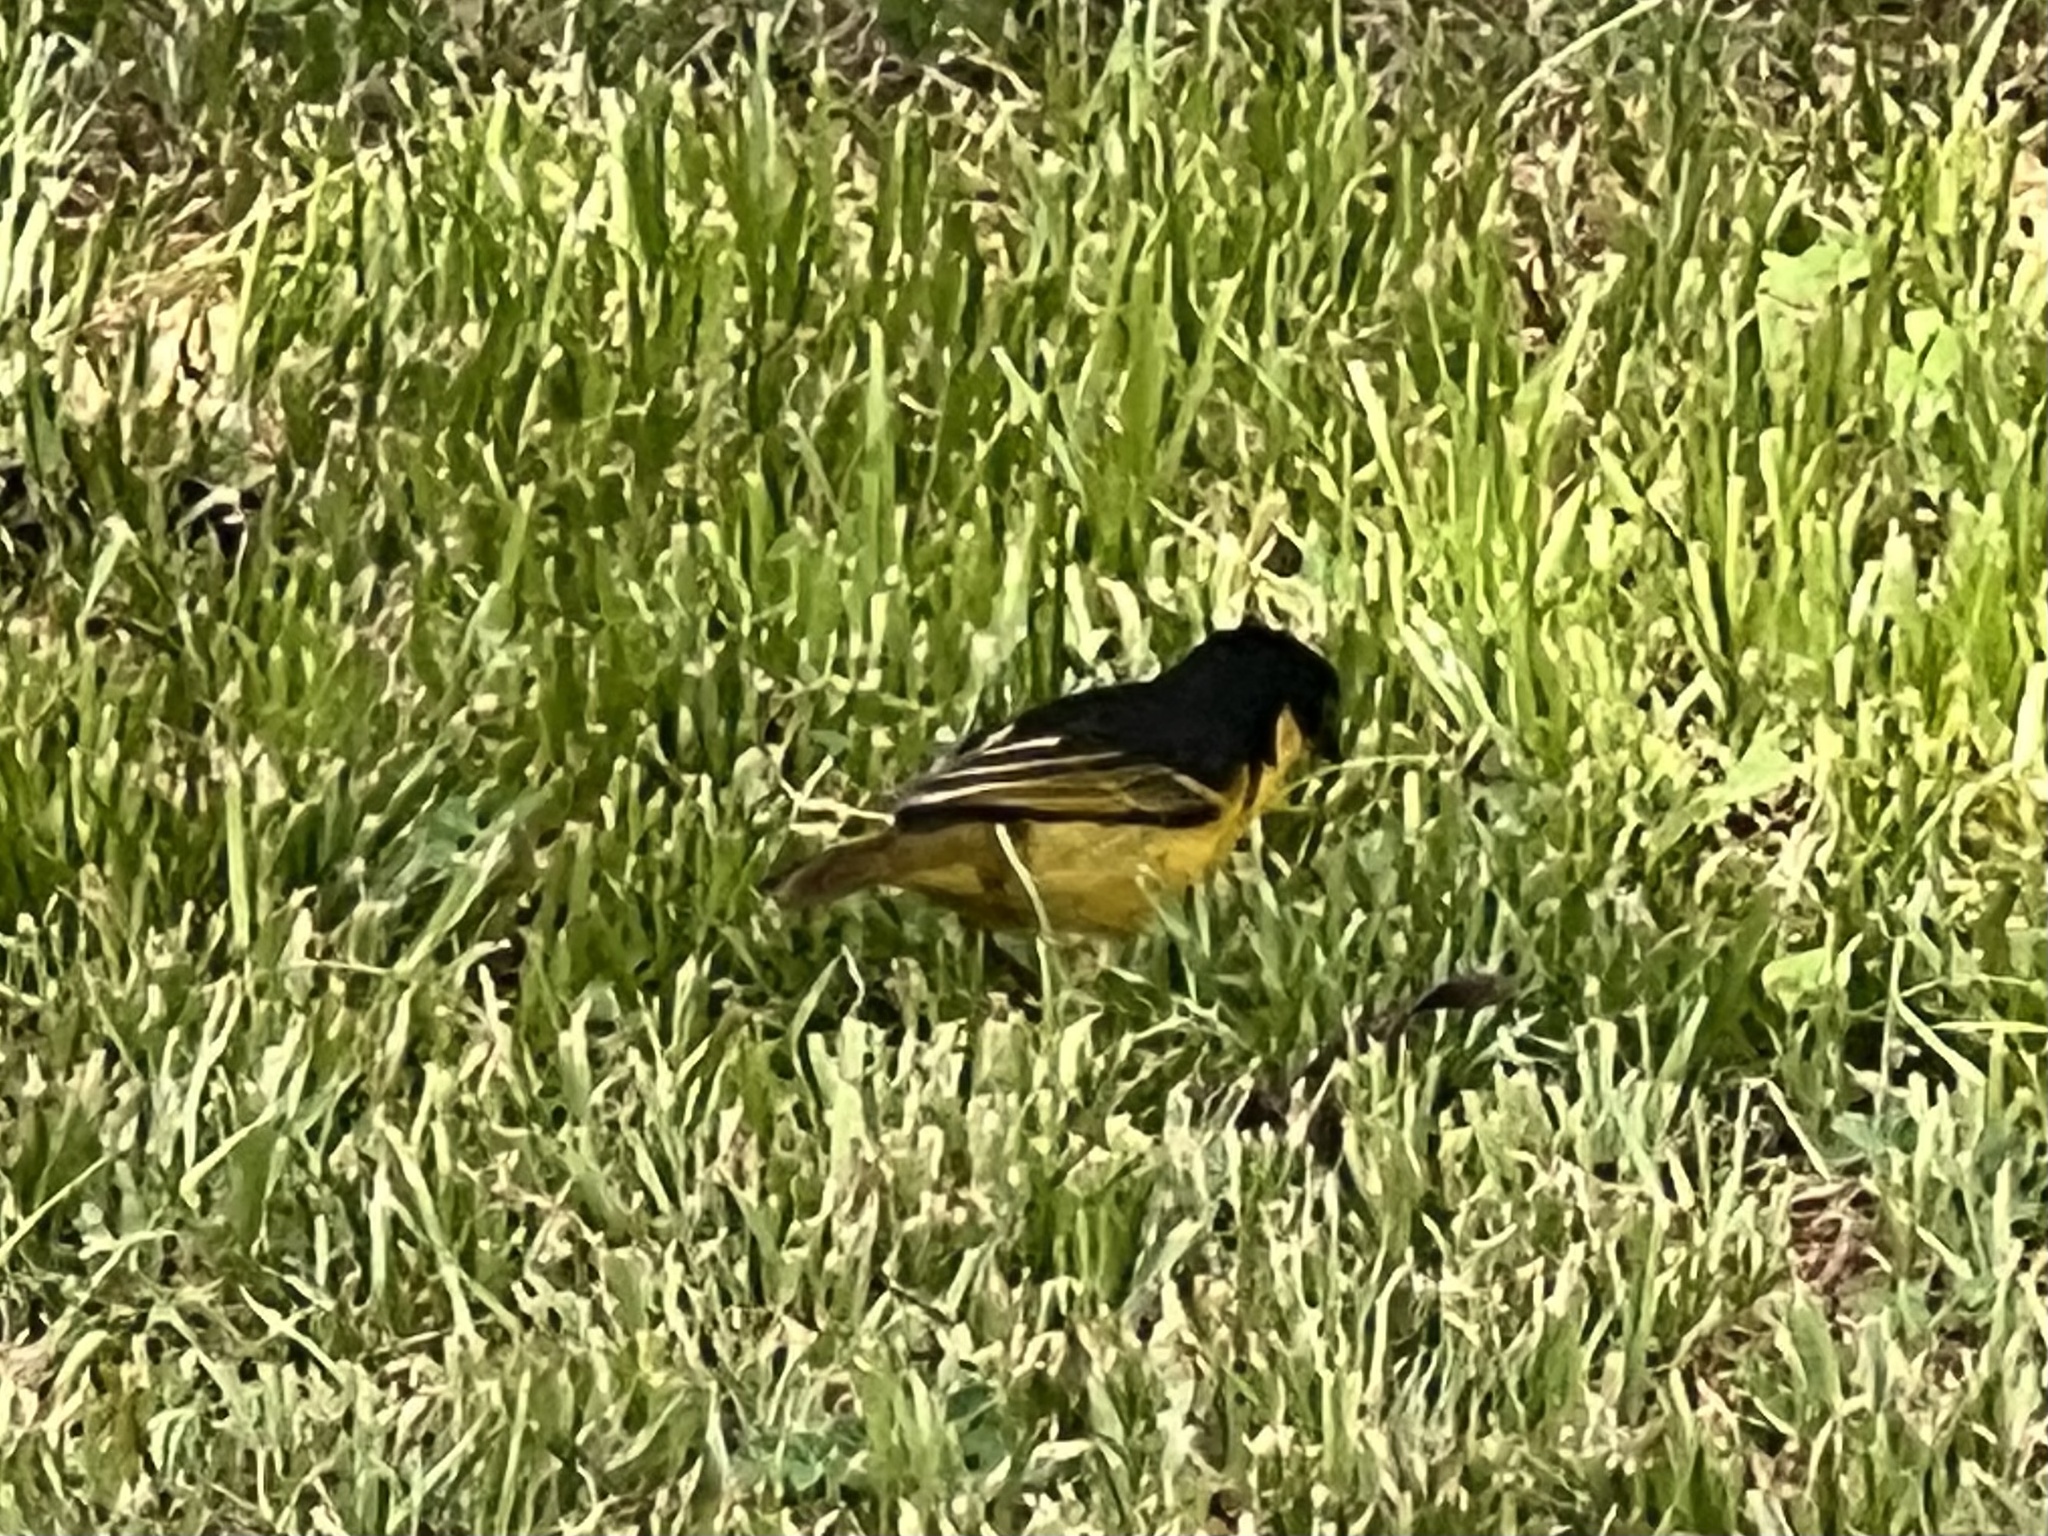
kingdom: Animalia
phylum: Chordata
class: Aves
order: Passeriformes
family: Ploceidae
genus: Ploceus
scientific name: Ploceus baglafecht
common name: Baglafecht weaver
